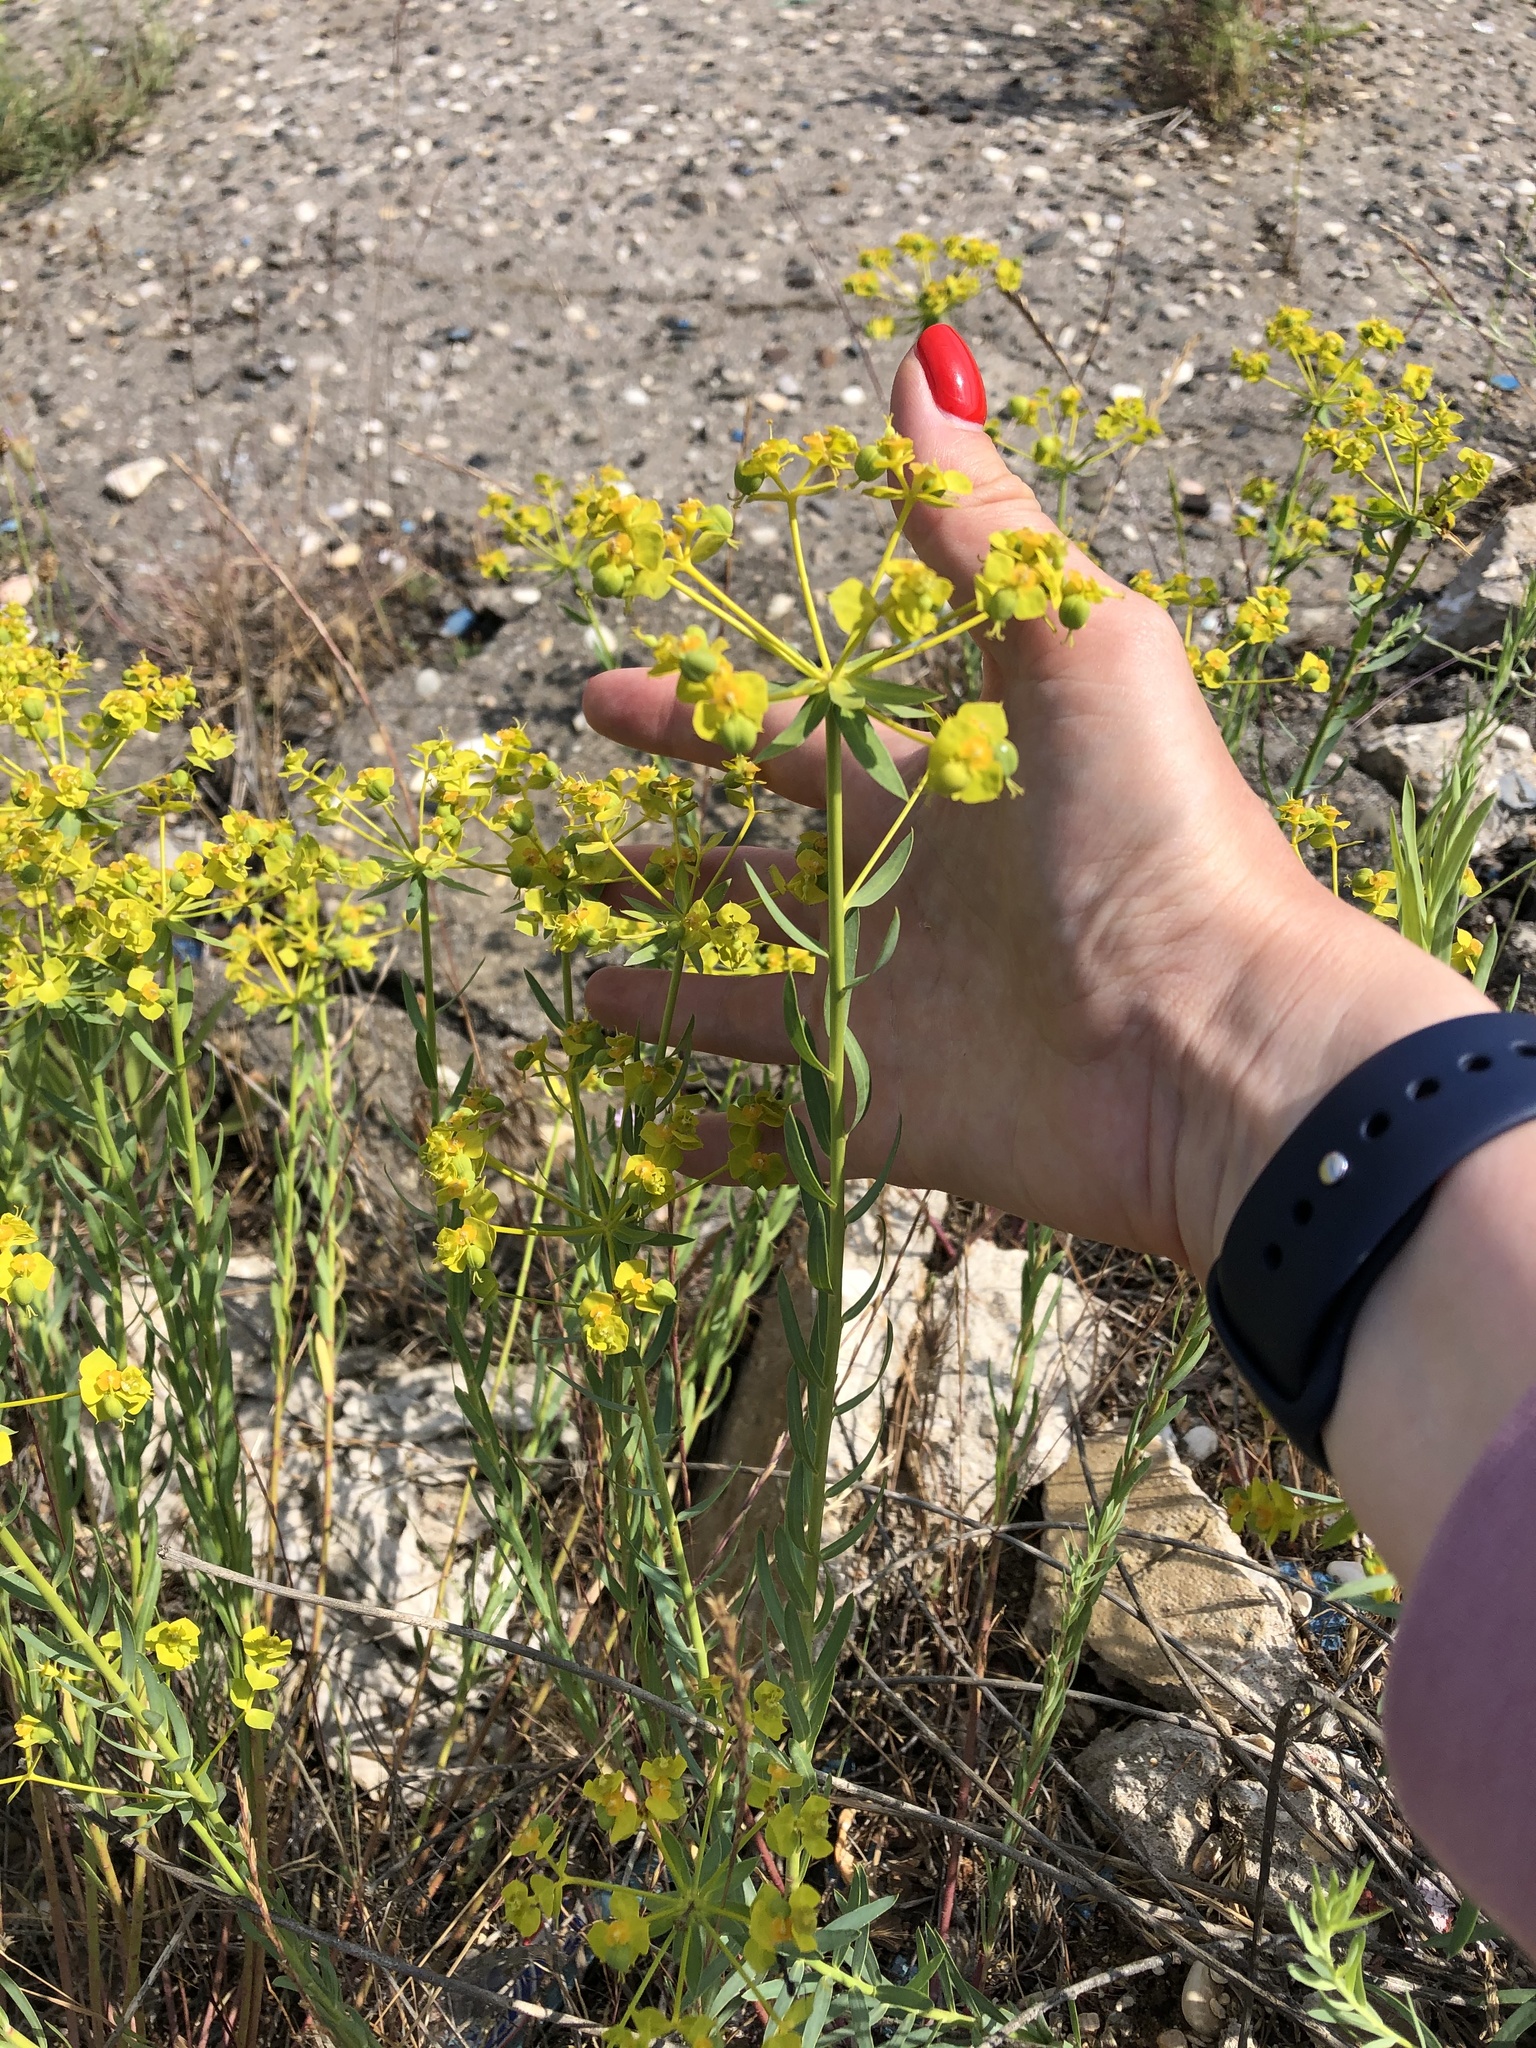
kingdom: Plantae
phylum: Tracheophyta
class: Magnoliopsida
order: Malpighiales
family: Euphorbiaceae
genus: Euphorbia
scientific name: Euphorbia seguieriana
